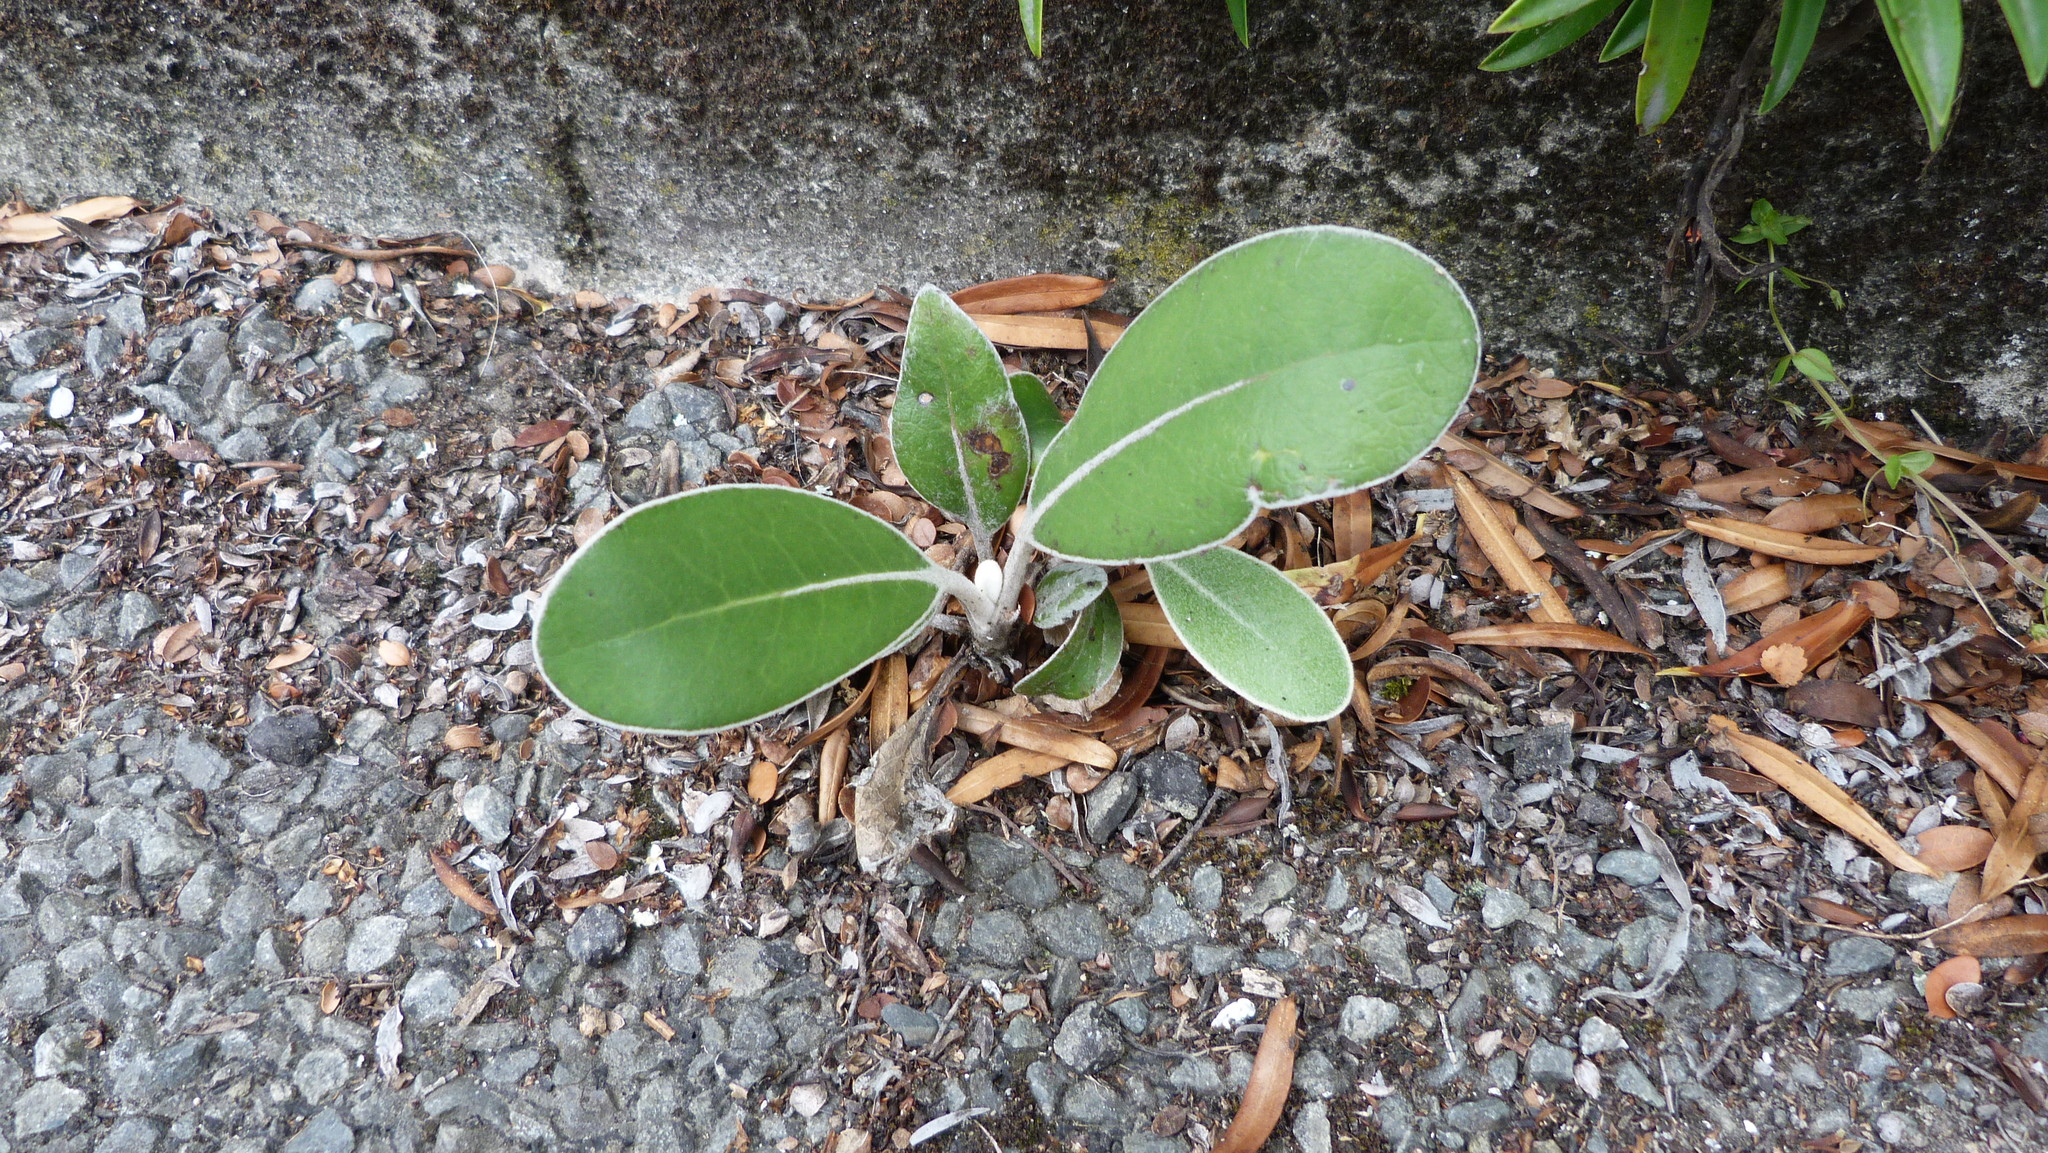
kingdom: Plantae
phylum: Tracheophyta
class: Magnoliopsida
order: Asterales
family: Asteraceae
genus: Pachystegia
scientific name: Pachystegia insignis
